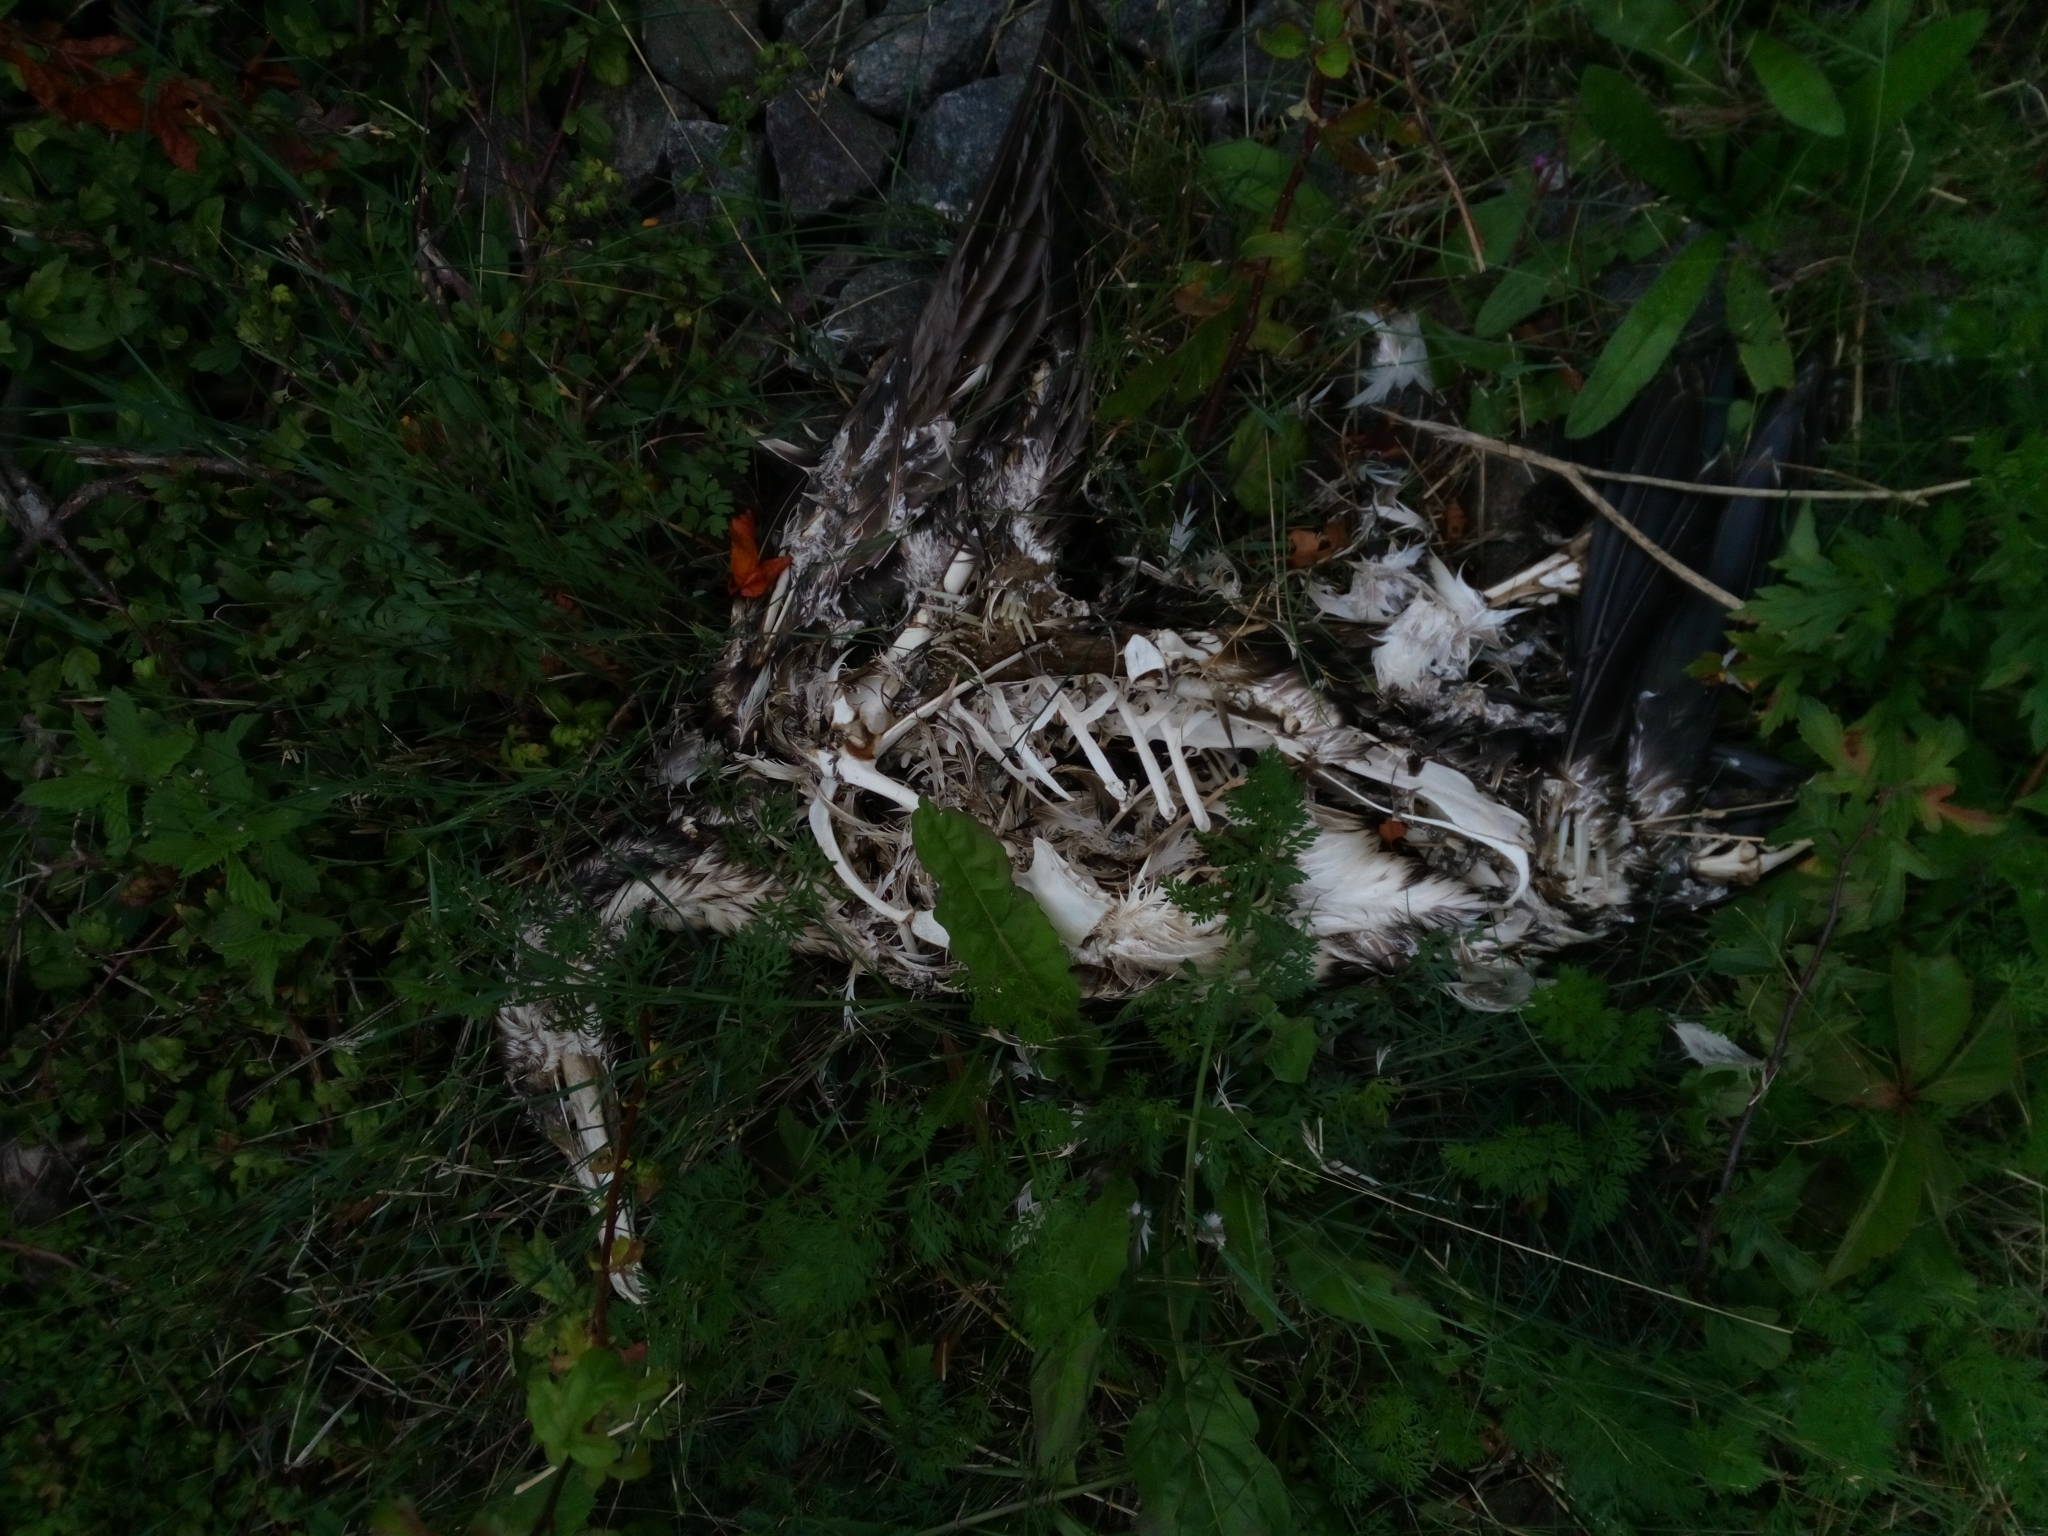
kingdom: Animalia
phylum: Chordata
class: Aves
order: Suliformes
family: Phalacrocoracidae
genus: Phalacrocorax
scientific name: Phalacrocorax carbo
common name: Great cormorant
